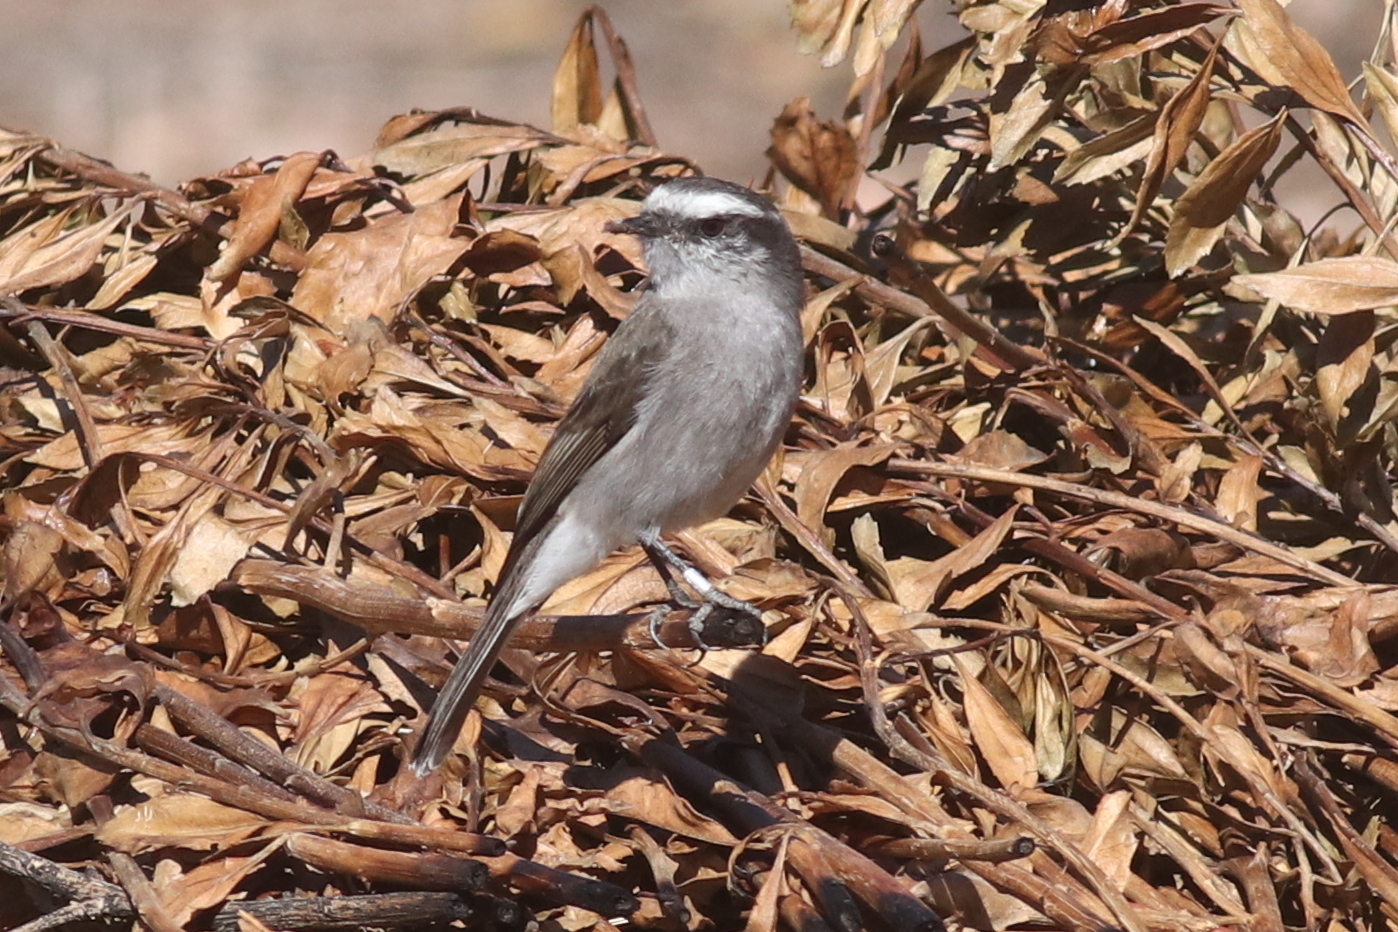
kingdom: Animalia
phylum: Chordata
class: Aves
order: Passeriformes
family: Tyrannidae
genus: Ochthoeca
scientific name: Ochthoeca leucophrys
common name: White-browed chat-tyrant
